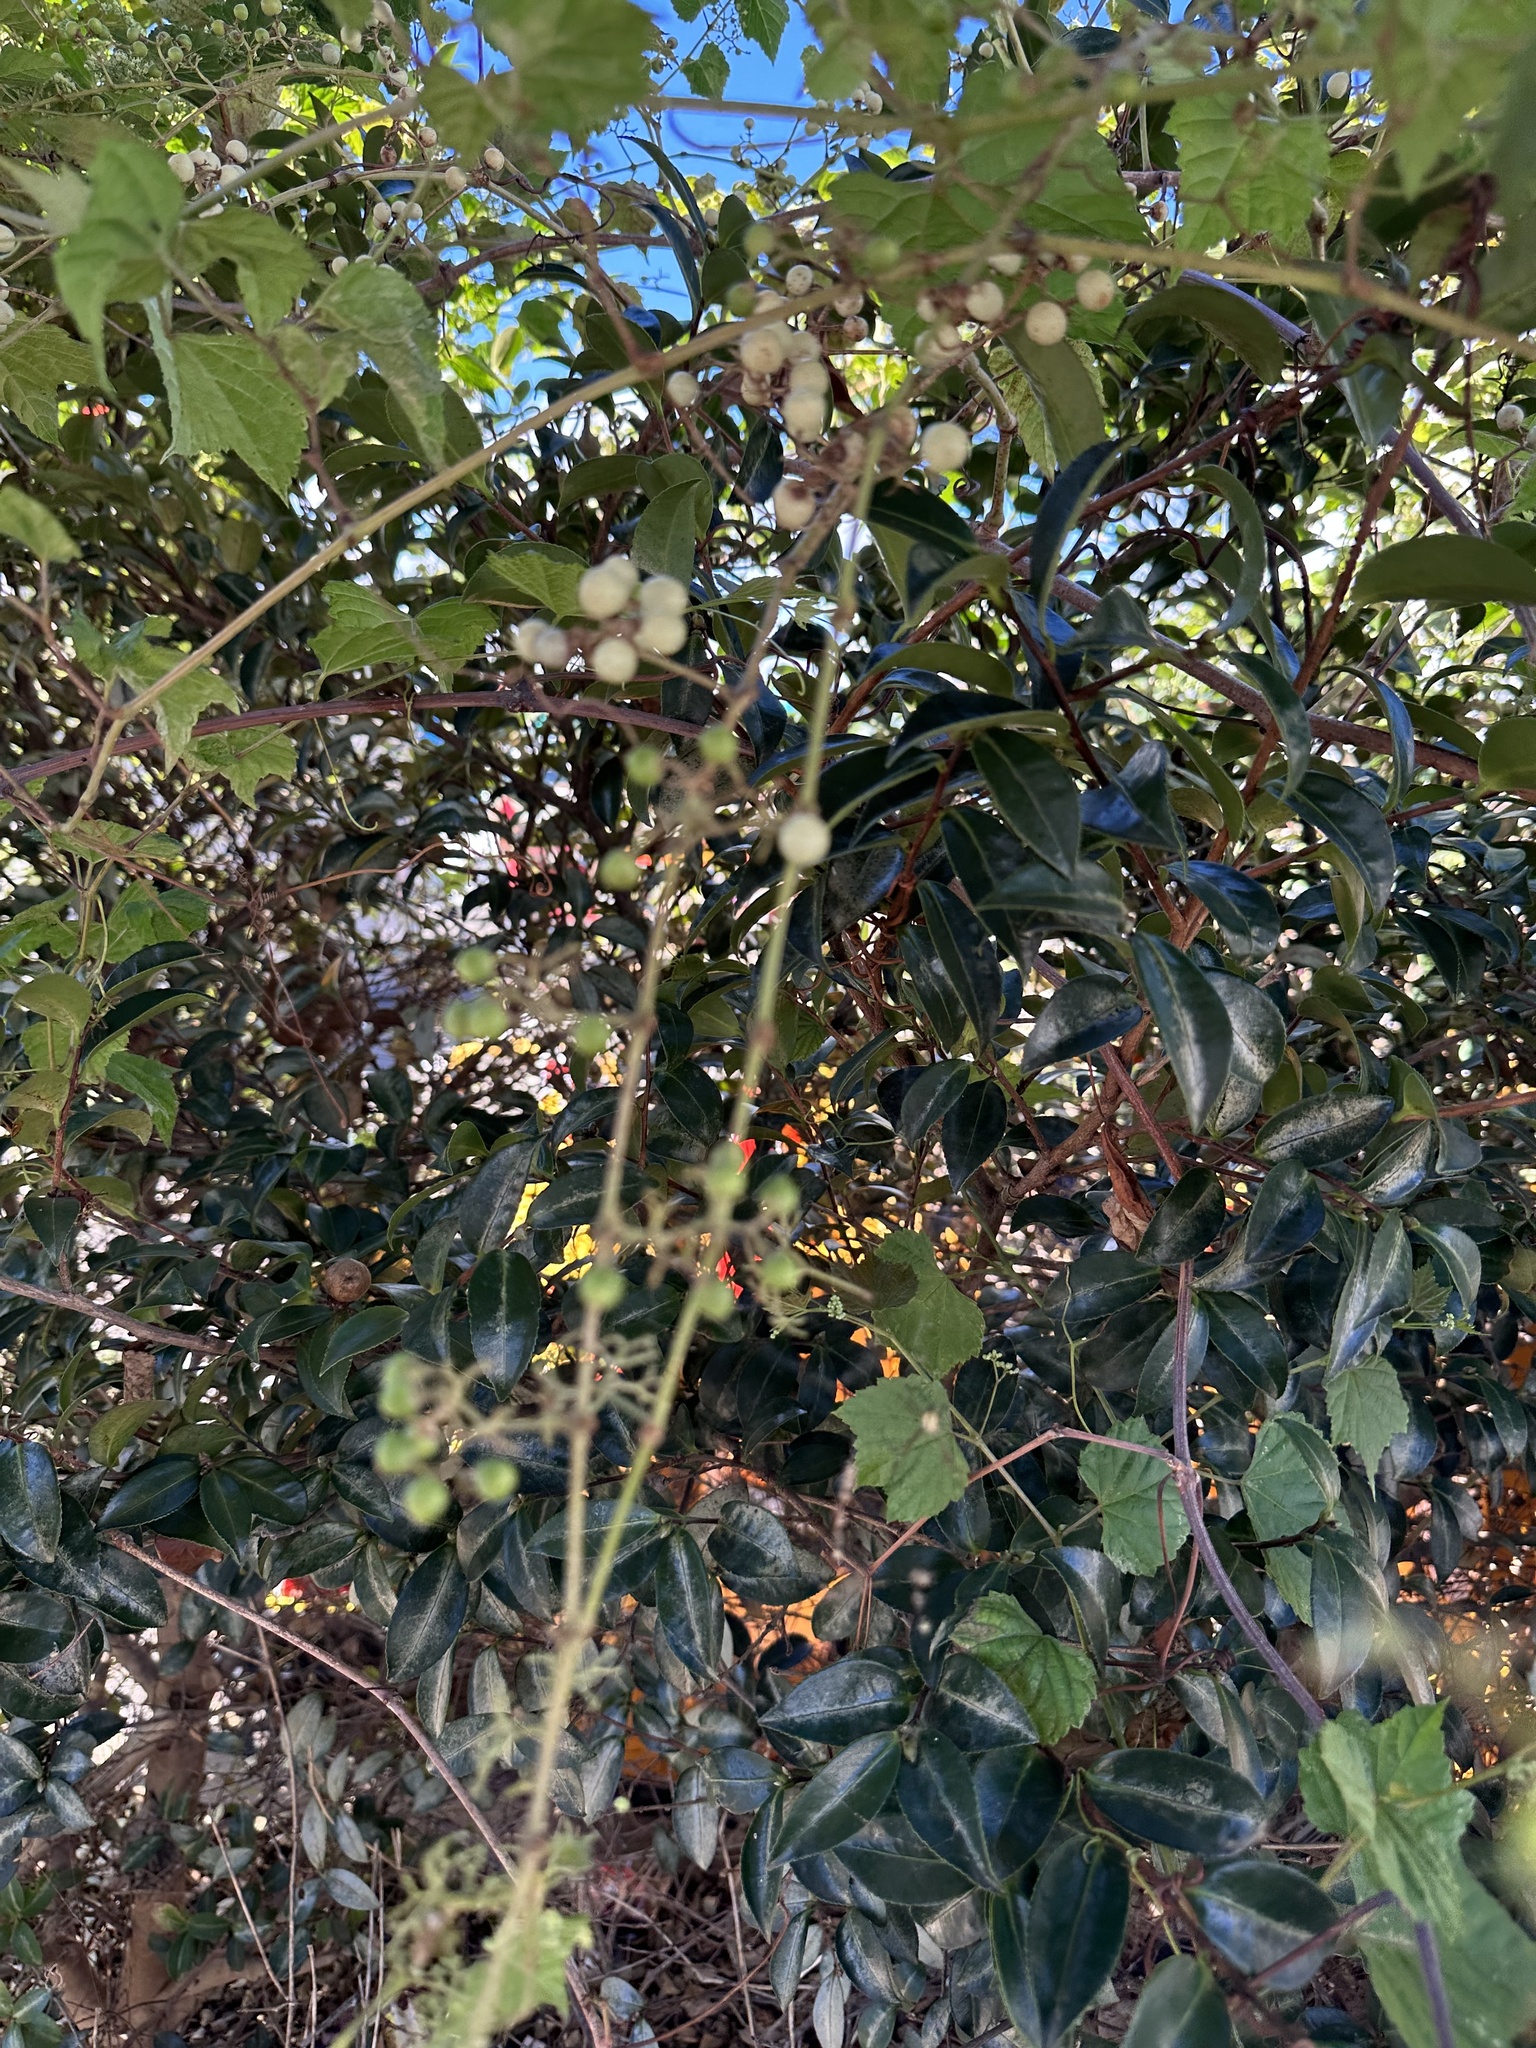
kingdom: Plantae
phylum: Tracheophyta
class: Magnoliopsida
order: Vitales
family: Vitaceae
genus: Ampelopsis
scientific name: Ampelopsis glandulosa
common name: Amur peppervine
